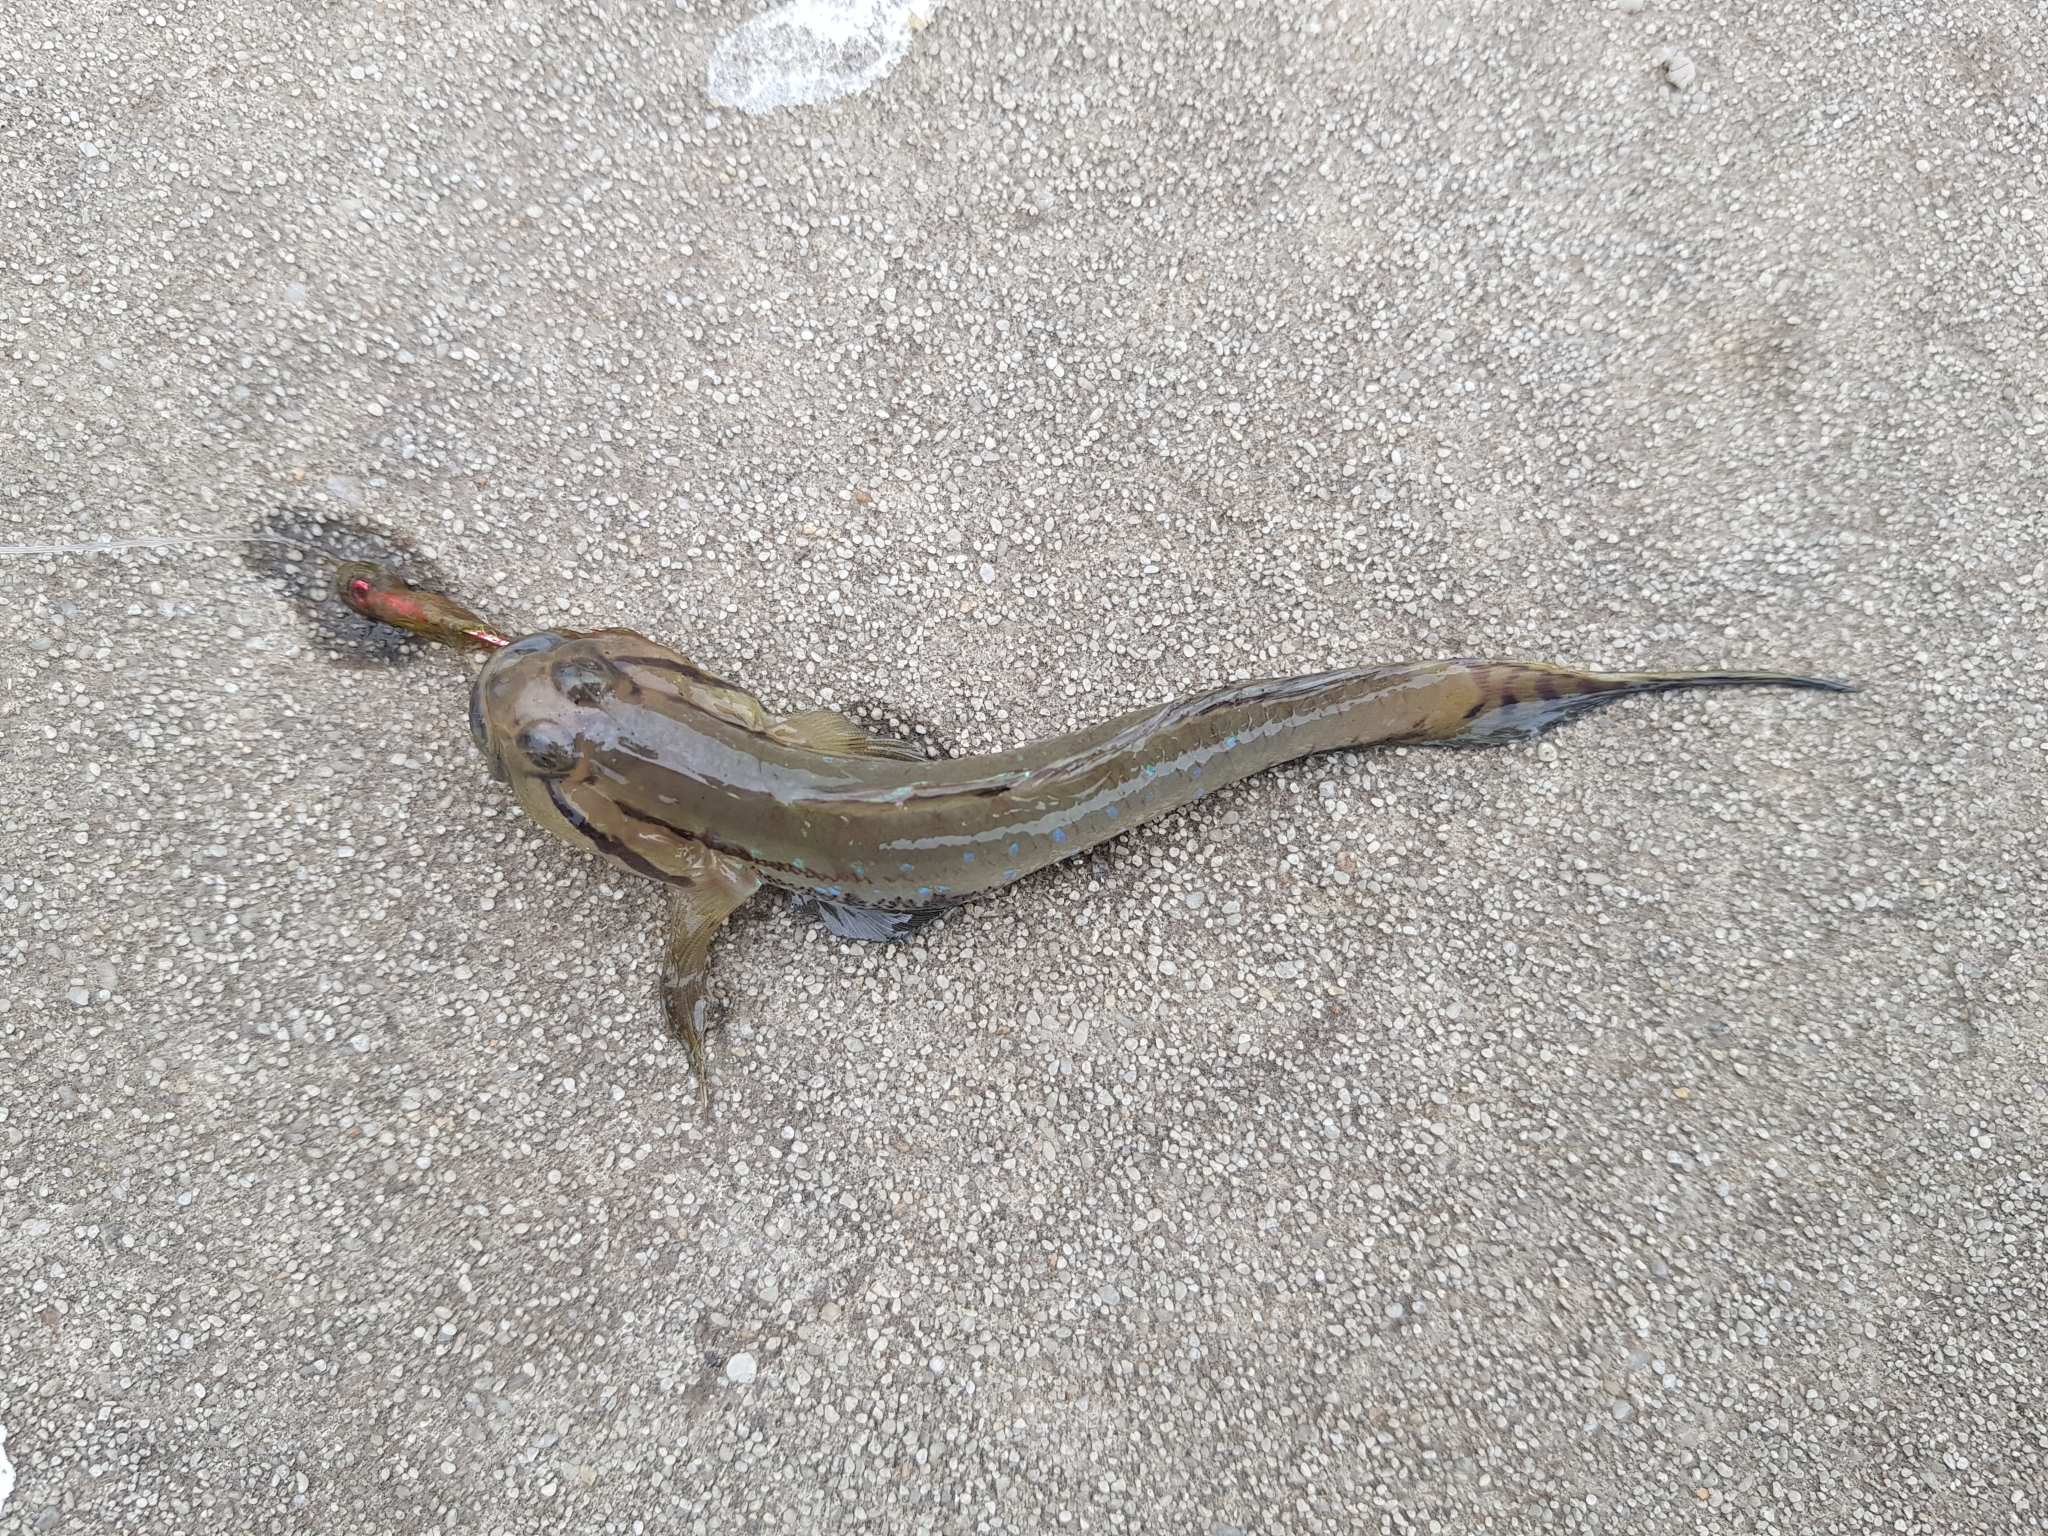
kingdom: Animalia
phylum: Chordata
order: Perciformes
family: Gobiidae
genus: Arenigobius
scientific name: Arenigobius bifrenatus
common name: Bridled goby
